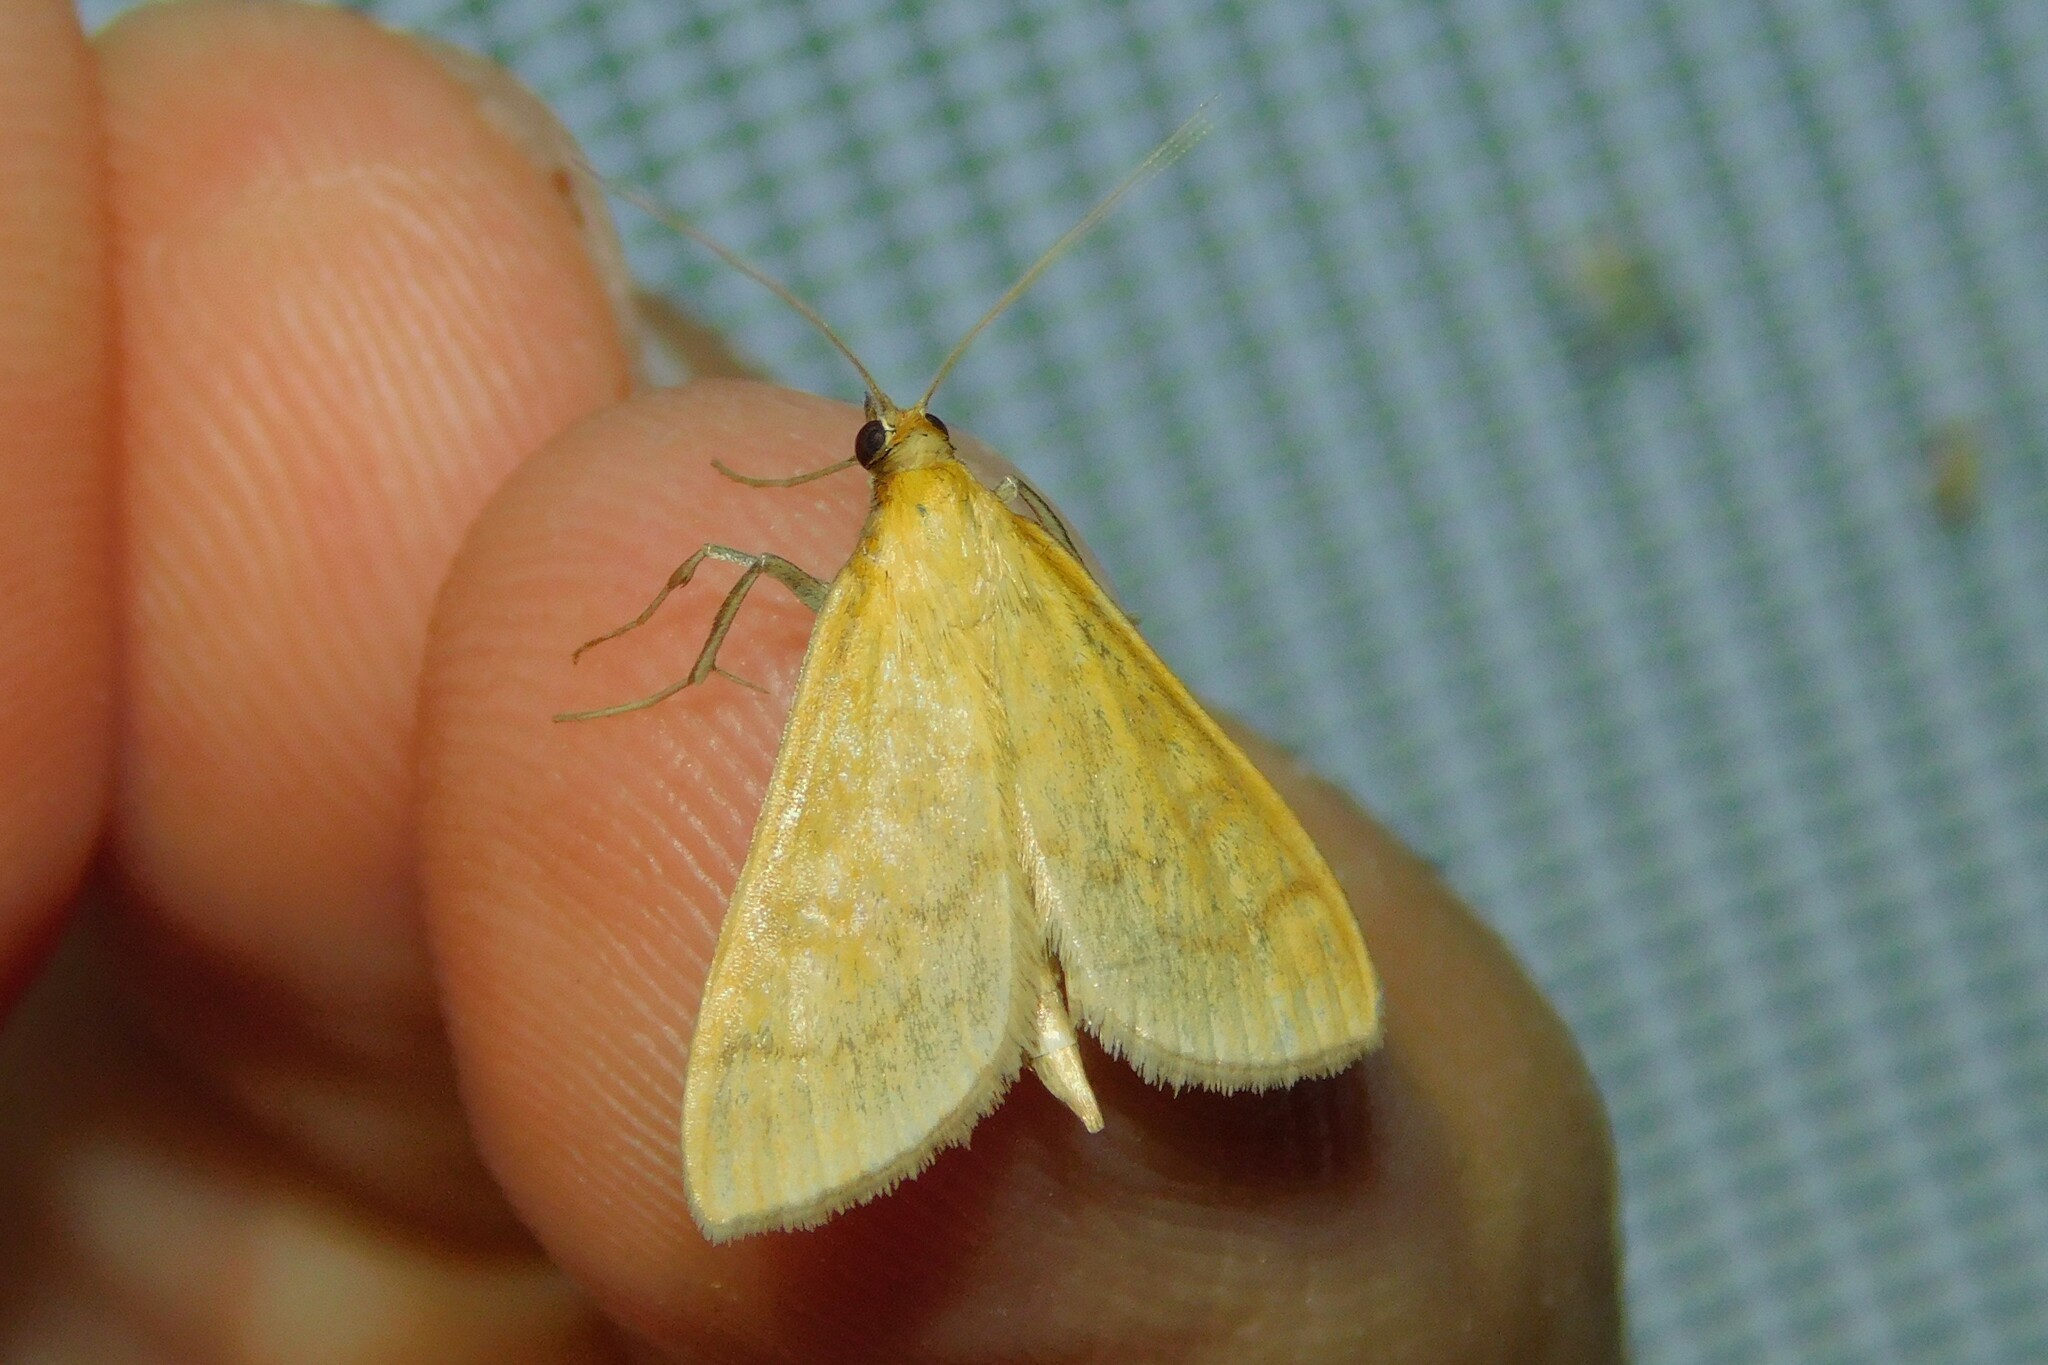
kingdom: Animalia
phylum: Arthropoda
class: Insecta
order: Lepidoptera
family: Crambidae
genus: Mecyna
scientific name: Mecyna flavalis
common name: Yellow pearl
